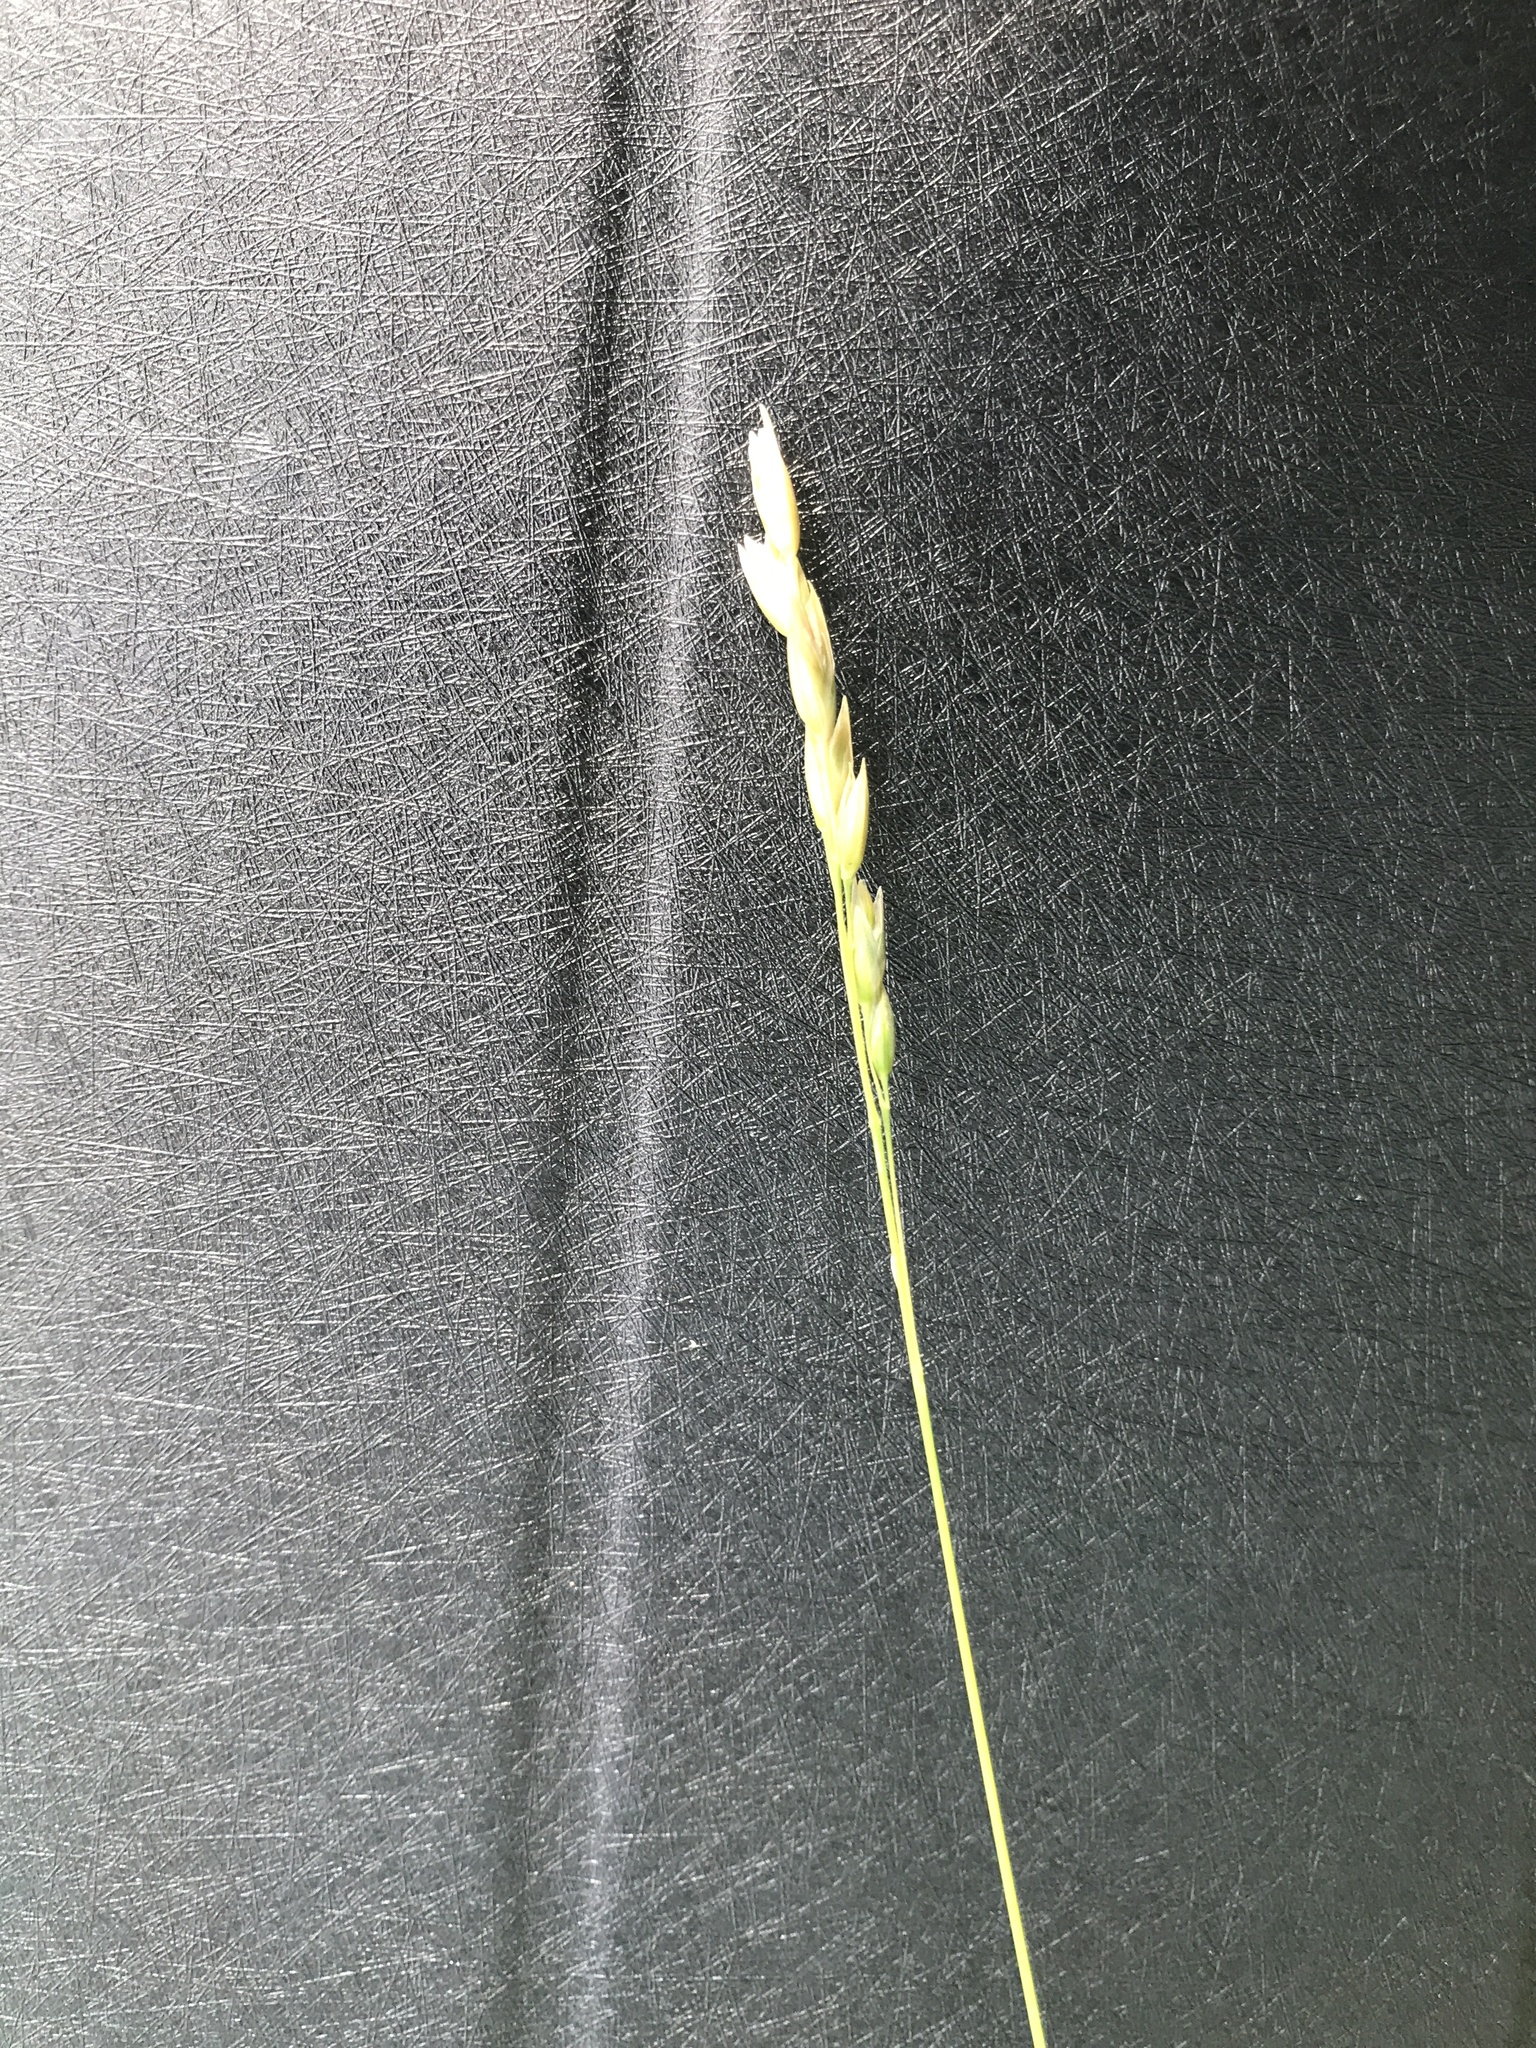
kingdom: Plantae
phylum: Tracheophyta
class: Liliopsida
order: Poales
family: Poaceae
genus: Danthonia
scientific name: Danthonia decumbens
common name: Common heathgrass
